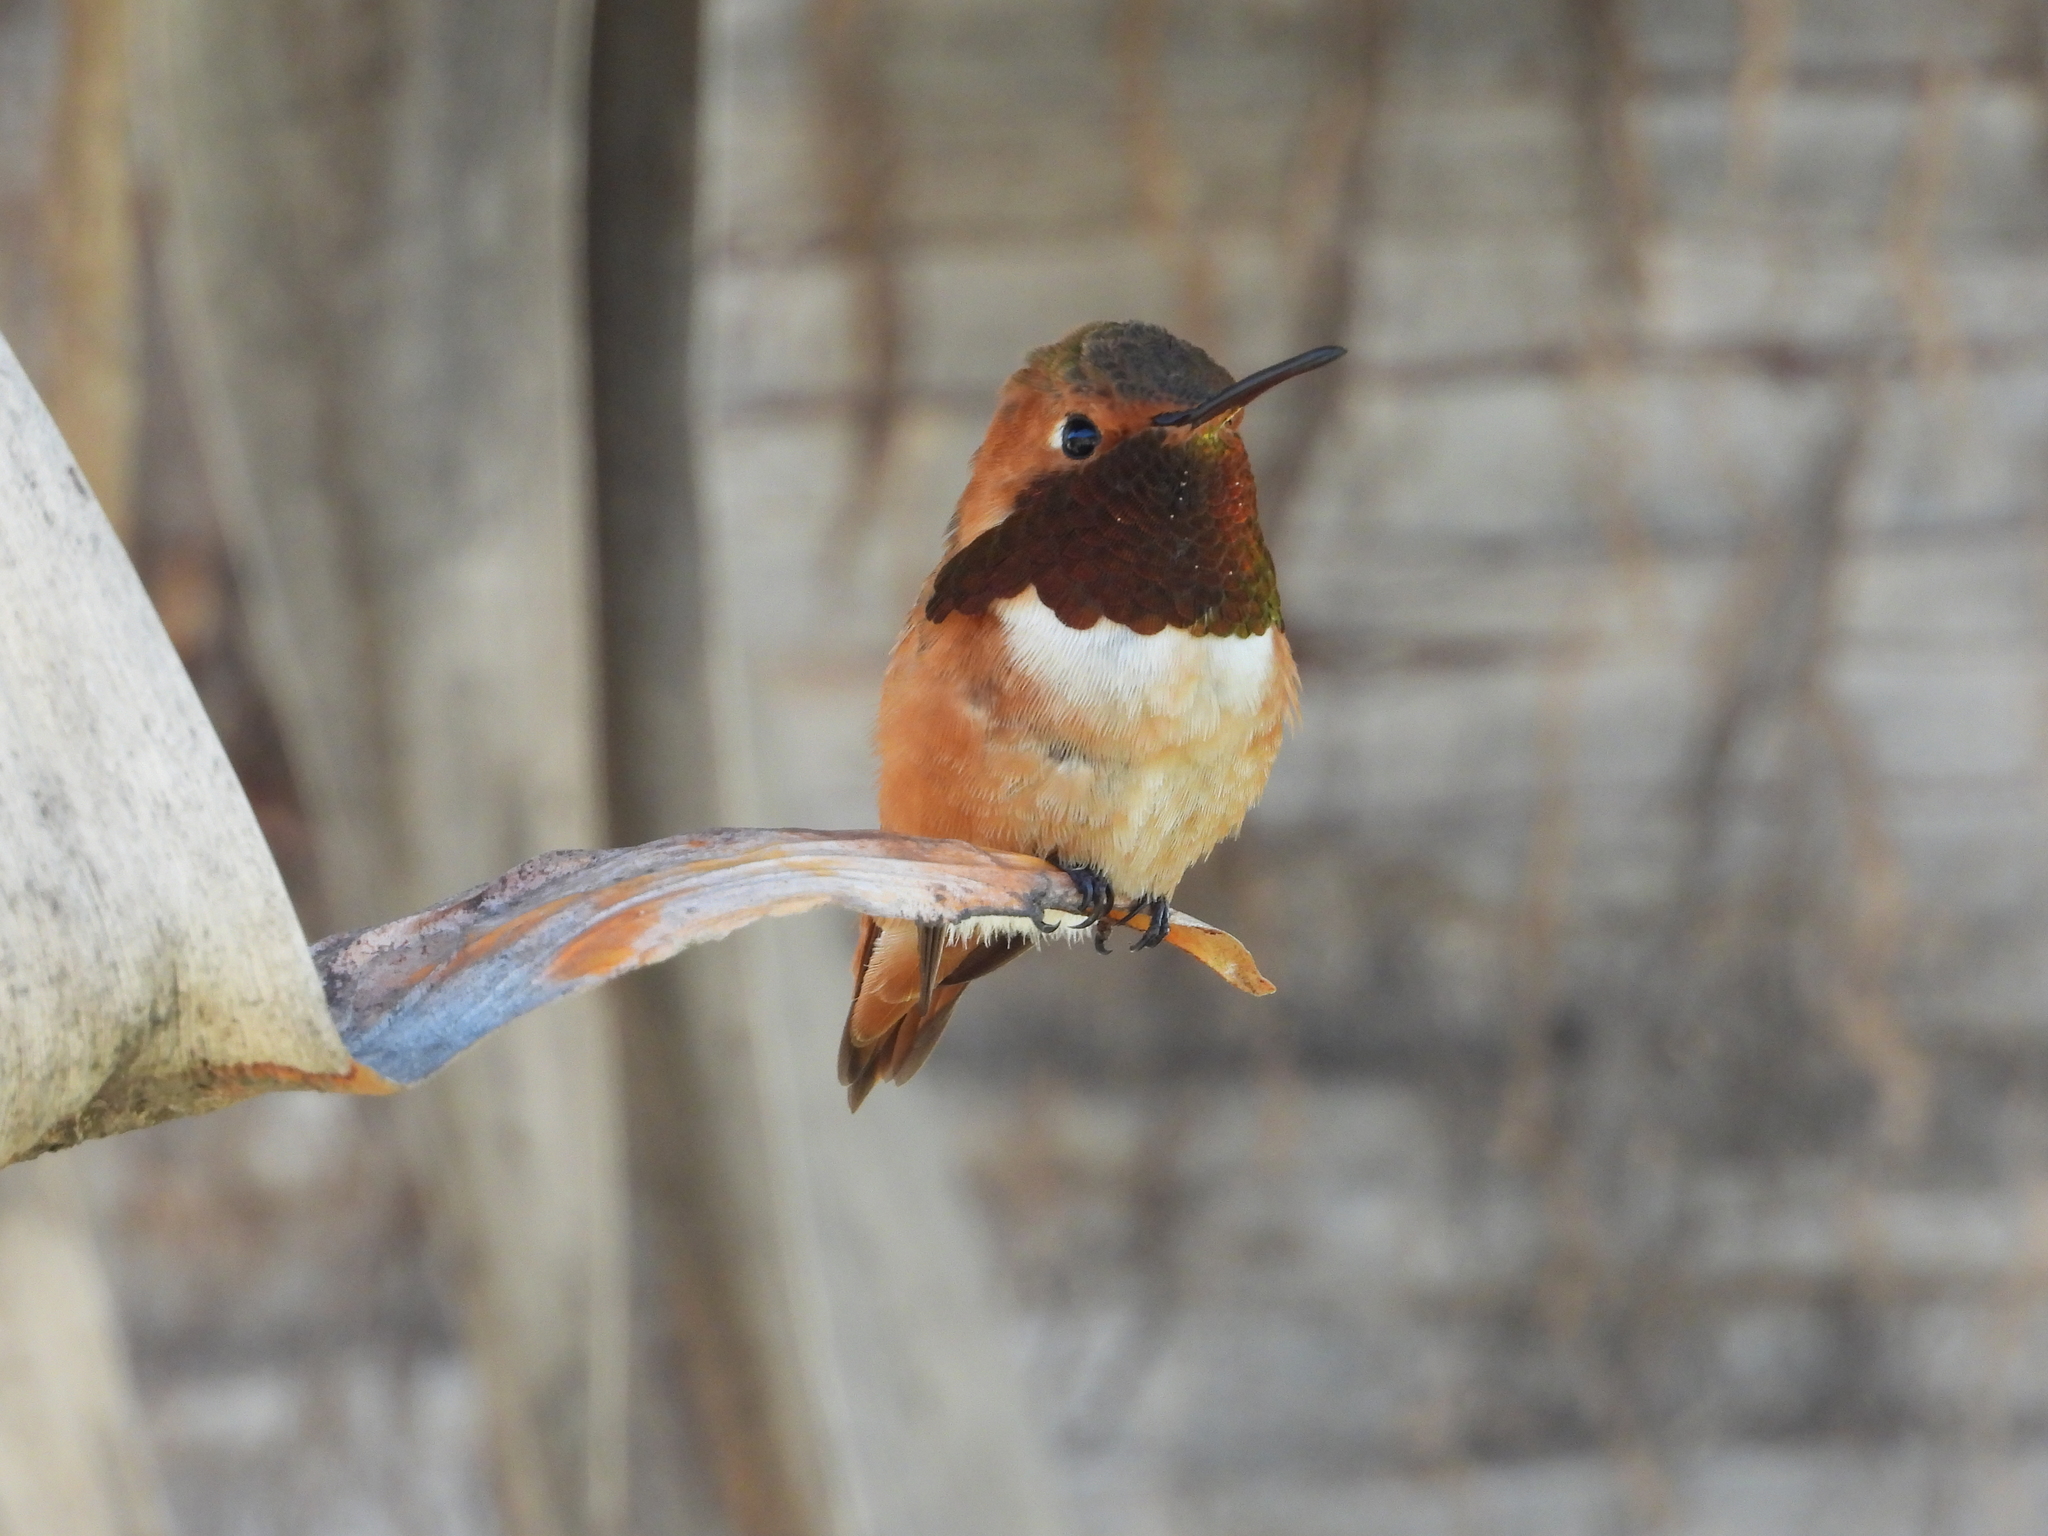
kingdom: Animalia
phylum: Chordata
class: Aves
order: Apodiformes
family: Trochilidae
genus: Selasphorus
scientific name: Selasphorus sasin
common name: Allen's hummingbird
